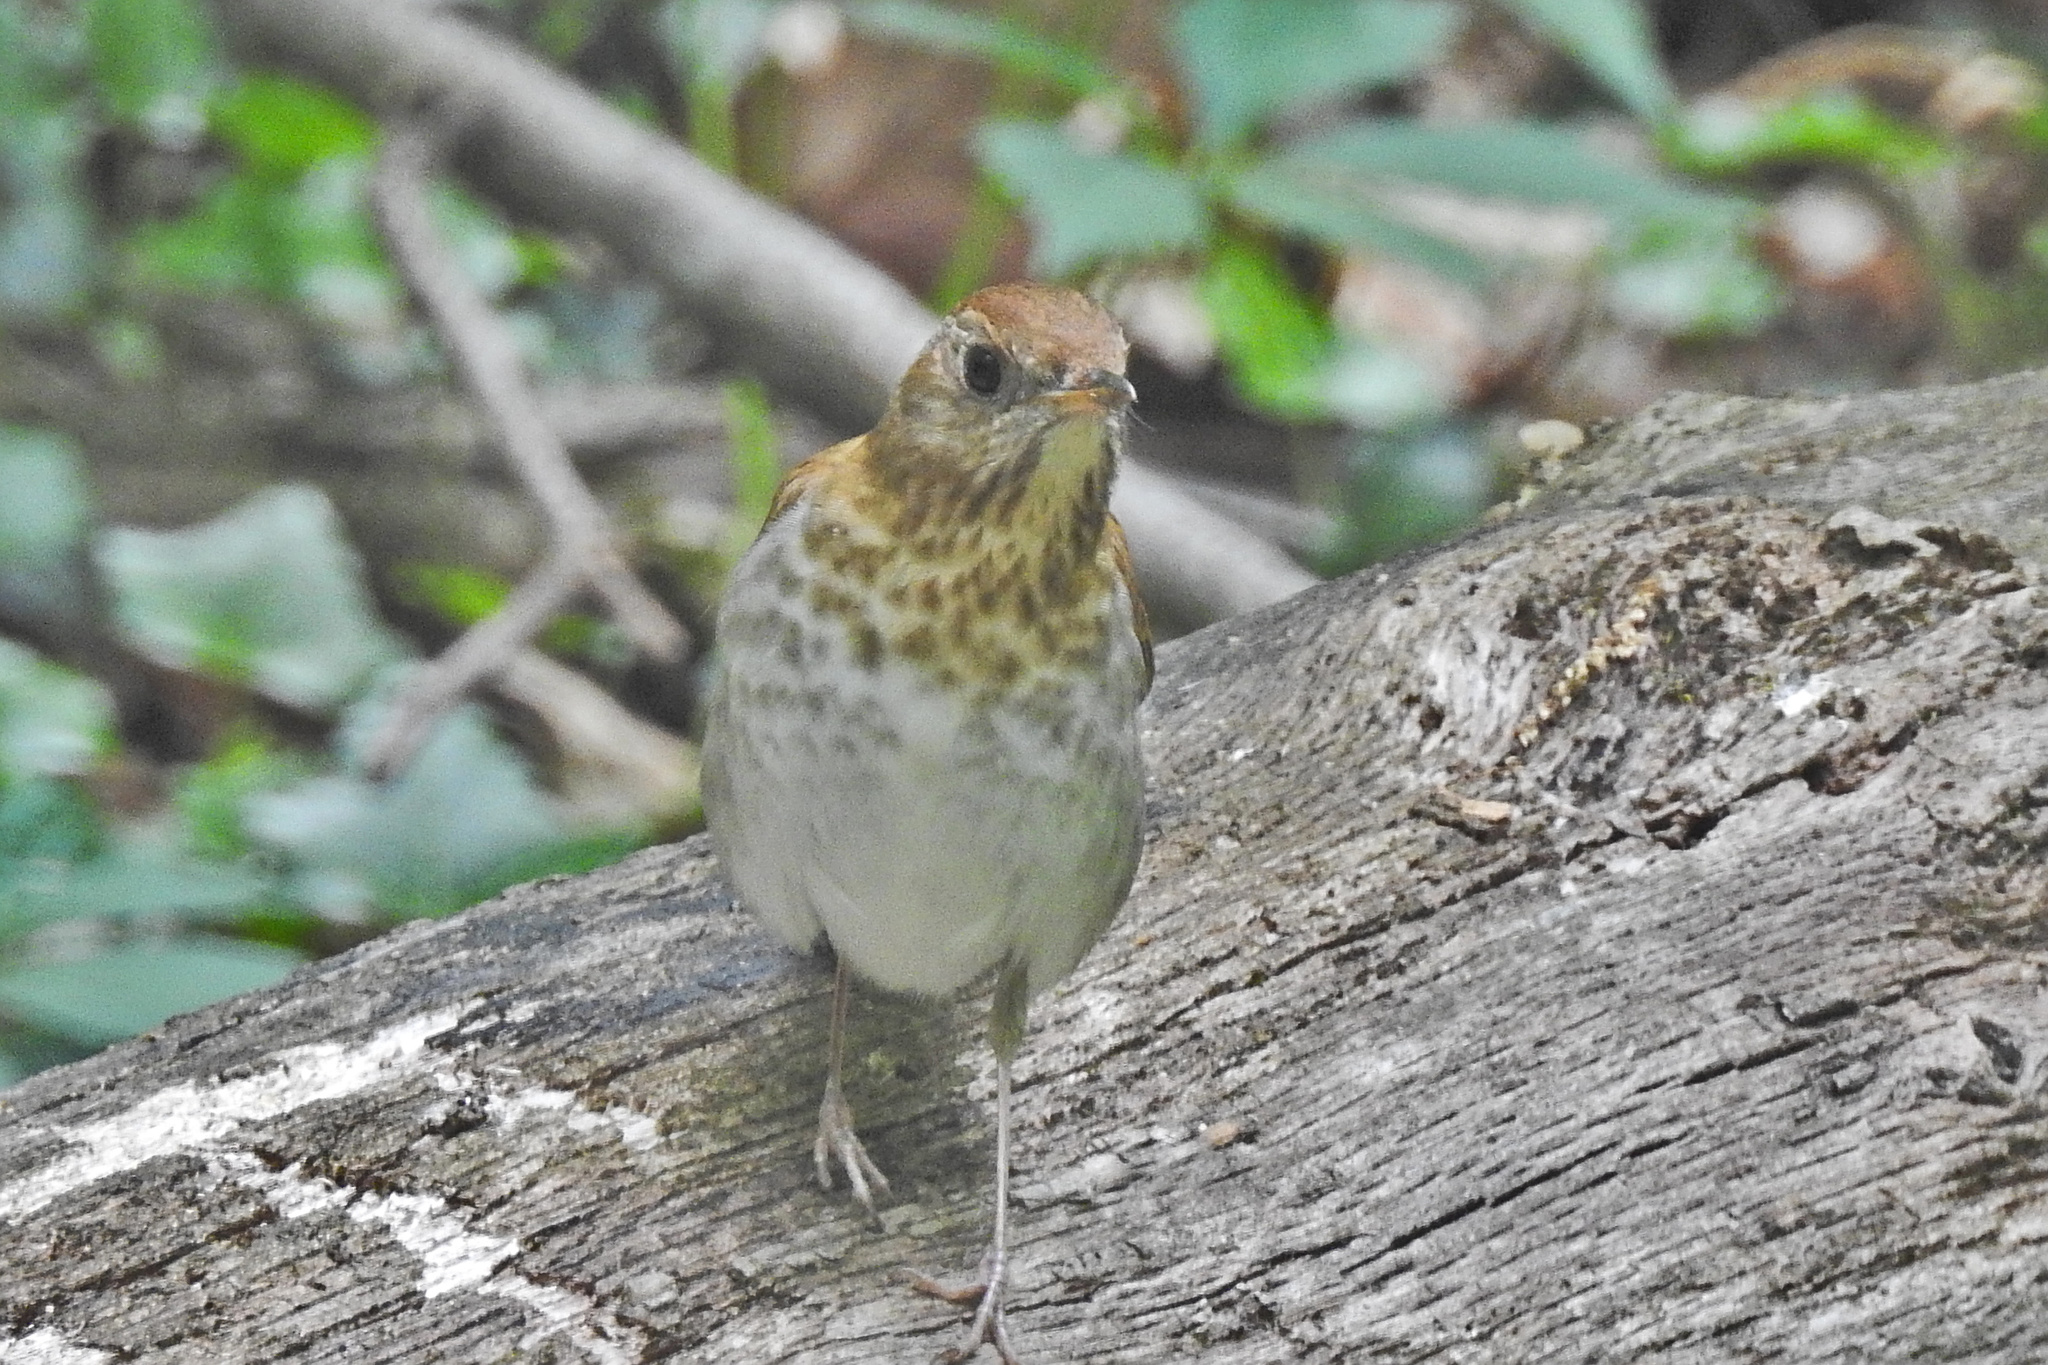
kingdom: Animalia
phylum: Chordata
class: Aves
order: Passeriformes
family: Turdidae
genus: Catharus
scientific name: Catharus fuscescens
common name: Veery
